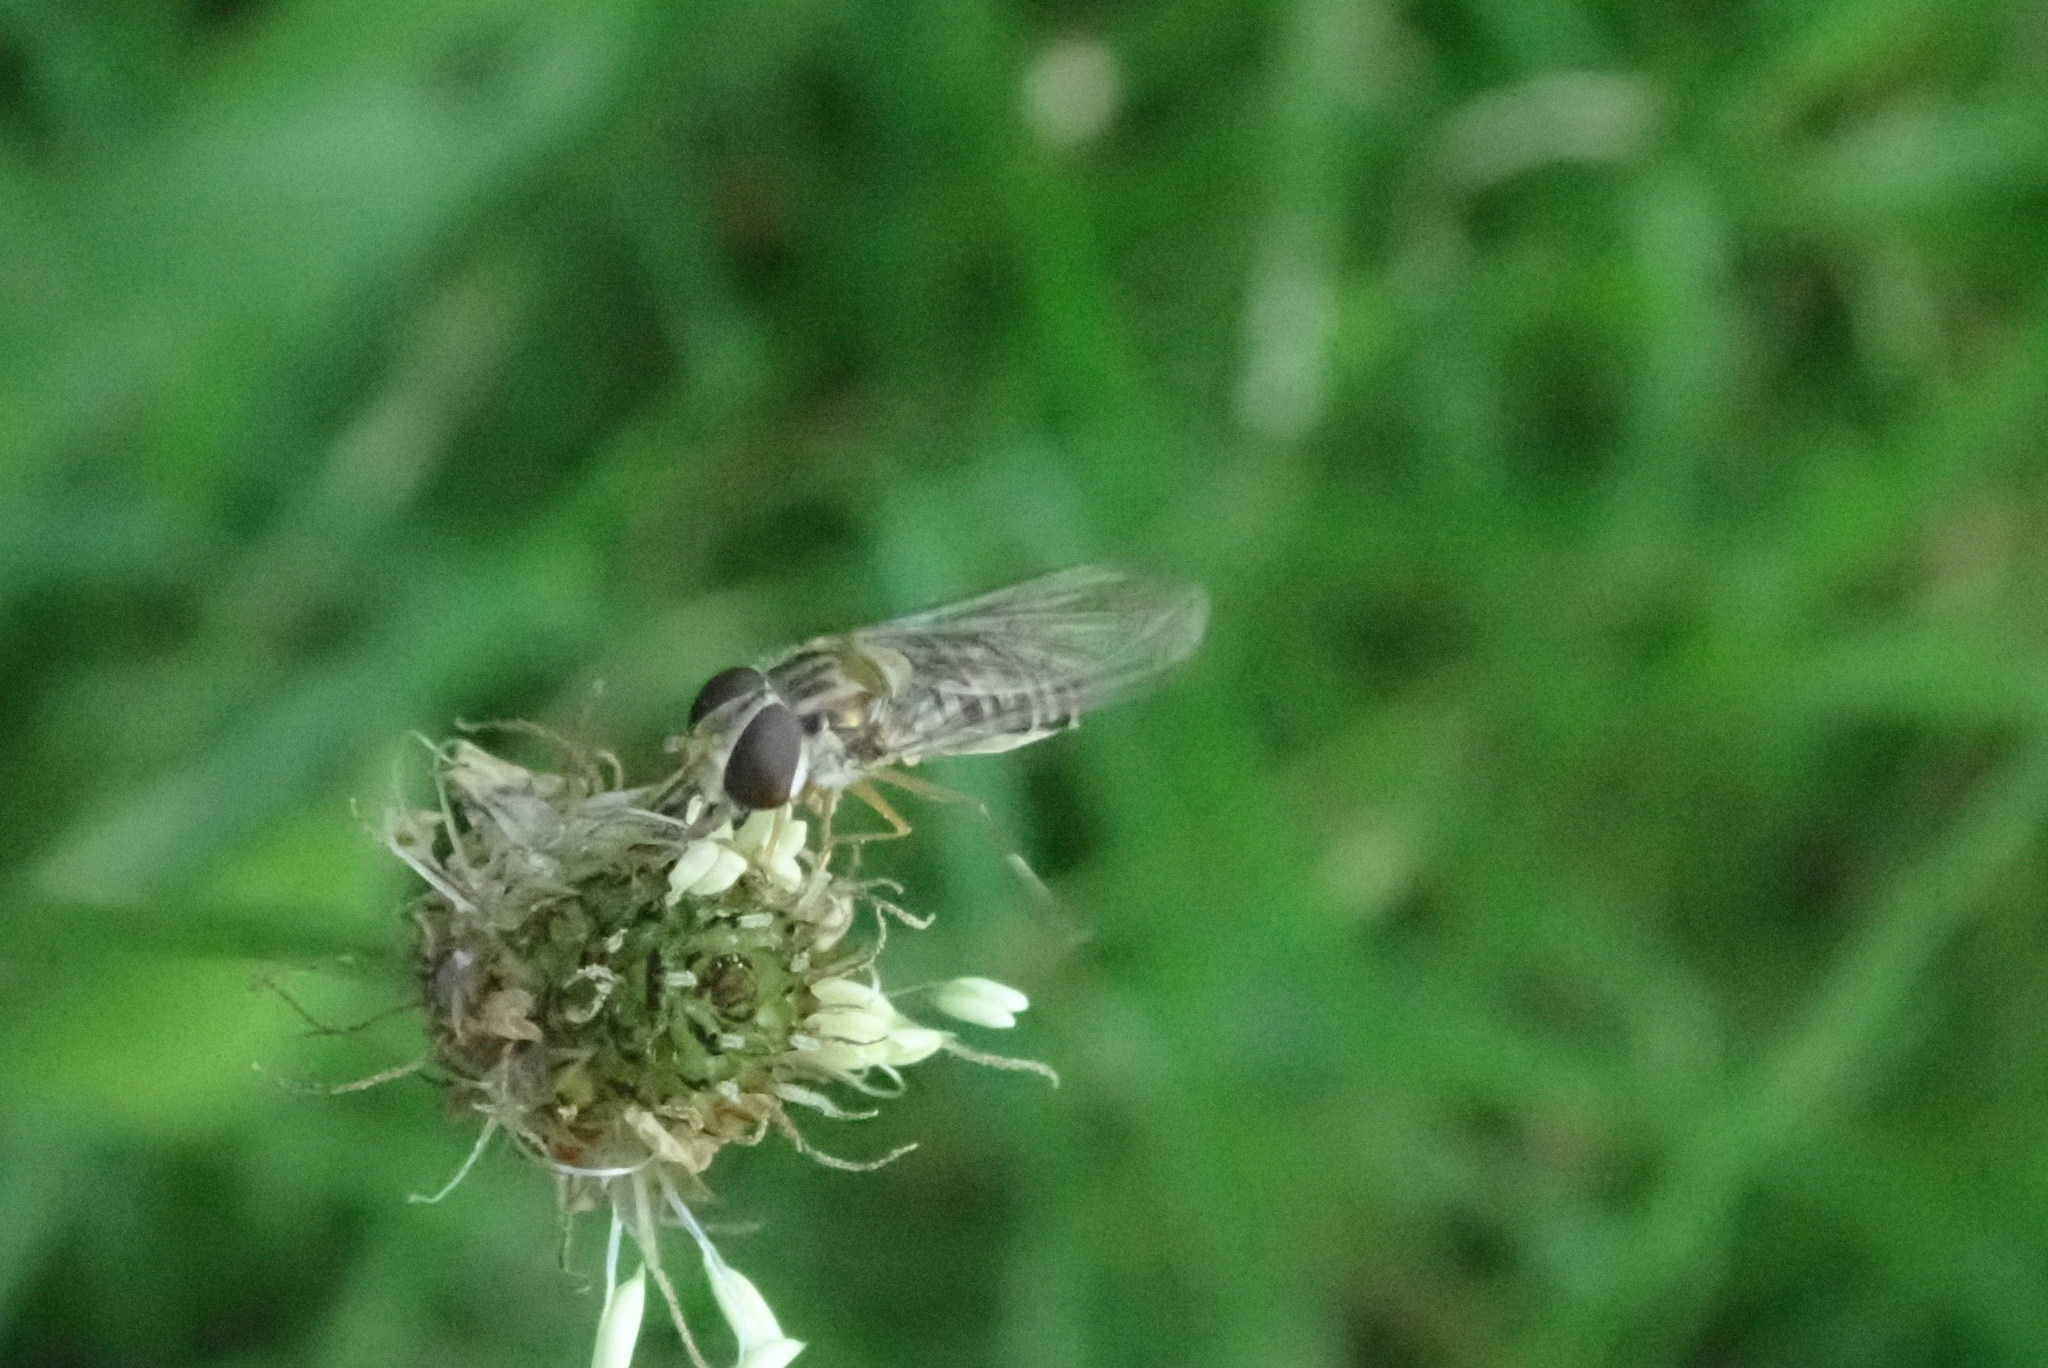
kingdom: Animalia
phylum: Arthropoda
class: Insecta
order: Diptera
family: Syrphidae
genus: Episyrphus
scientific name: Episyrphus balteatus
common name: Marmalade hoverfly
